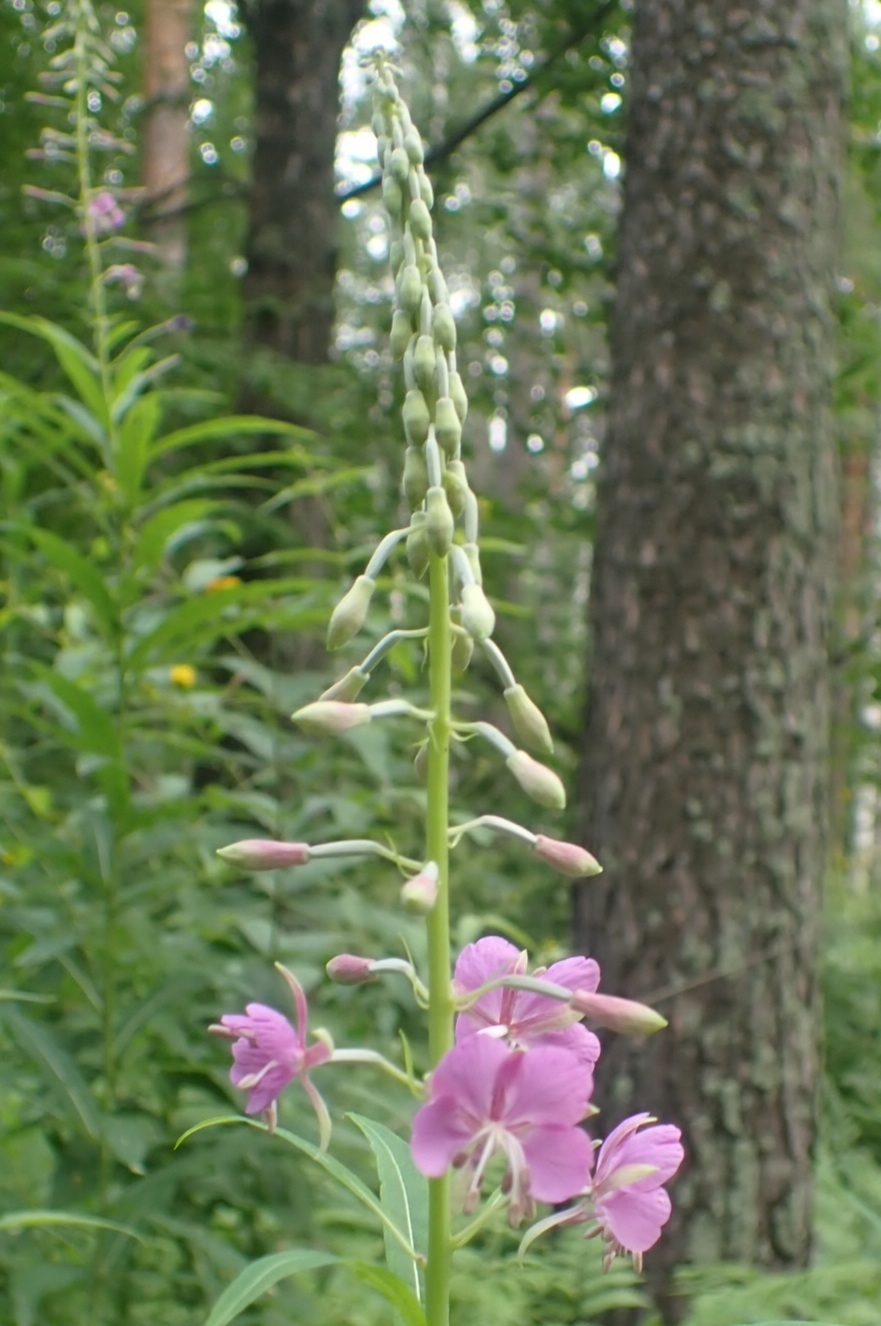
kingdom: Plantae
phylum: Tracheophyta
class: Magnoliopsida
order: Myrtales
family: Onagraceae
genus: Chamaenerion
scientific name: Chamaenerion angustifolium
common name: Fireweed
